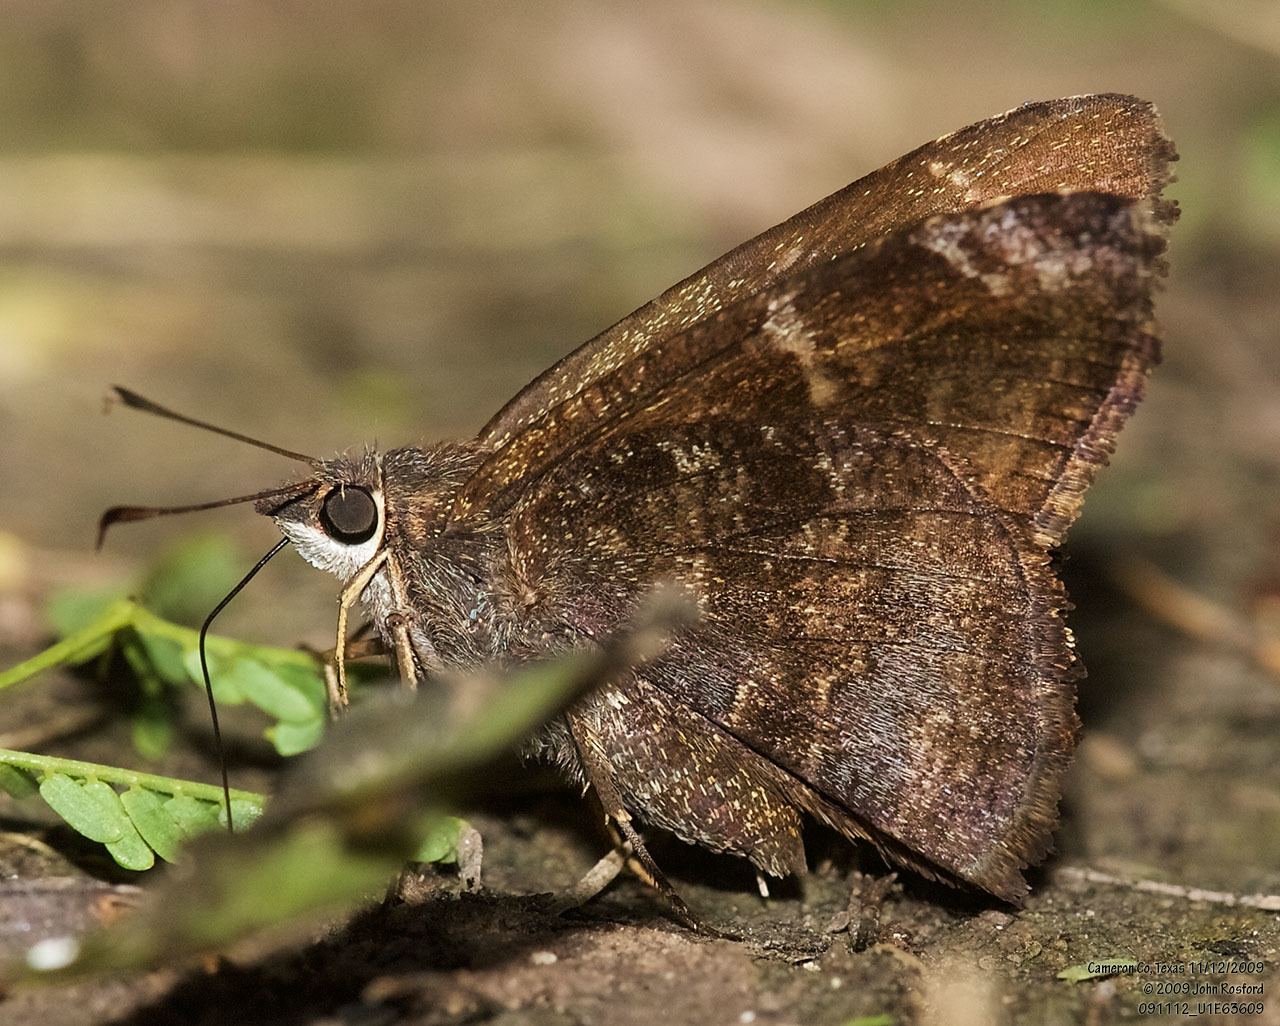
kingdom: Animalia
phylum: Arthropoda
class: Insecta
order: Lepidoptera
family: Hesperiidae
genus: Caicella
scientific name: Caicella calchas
